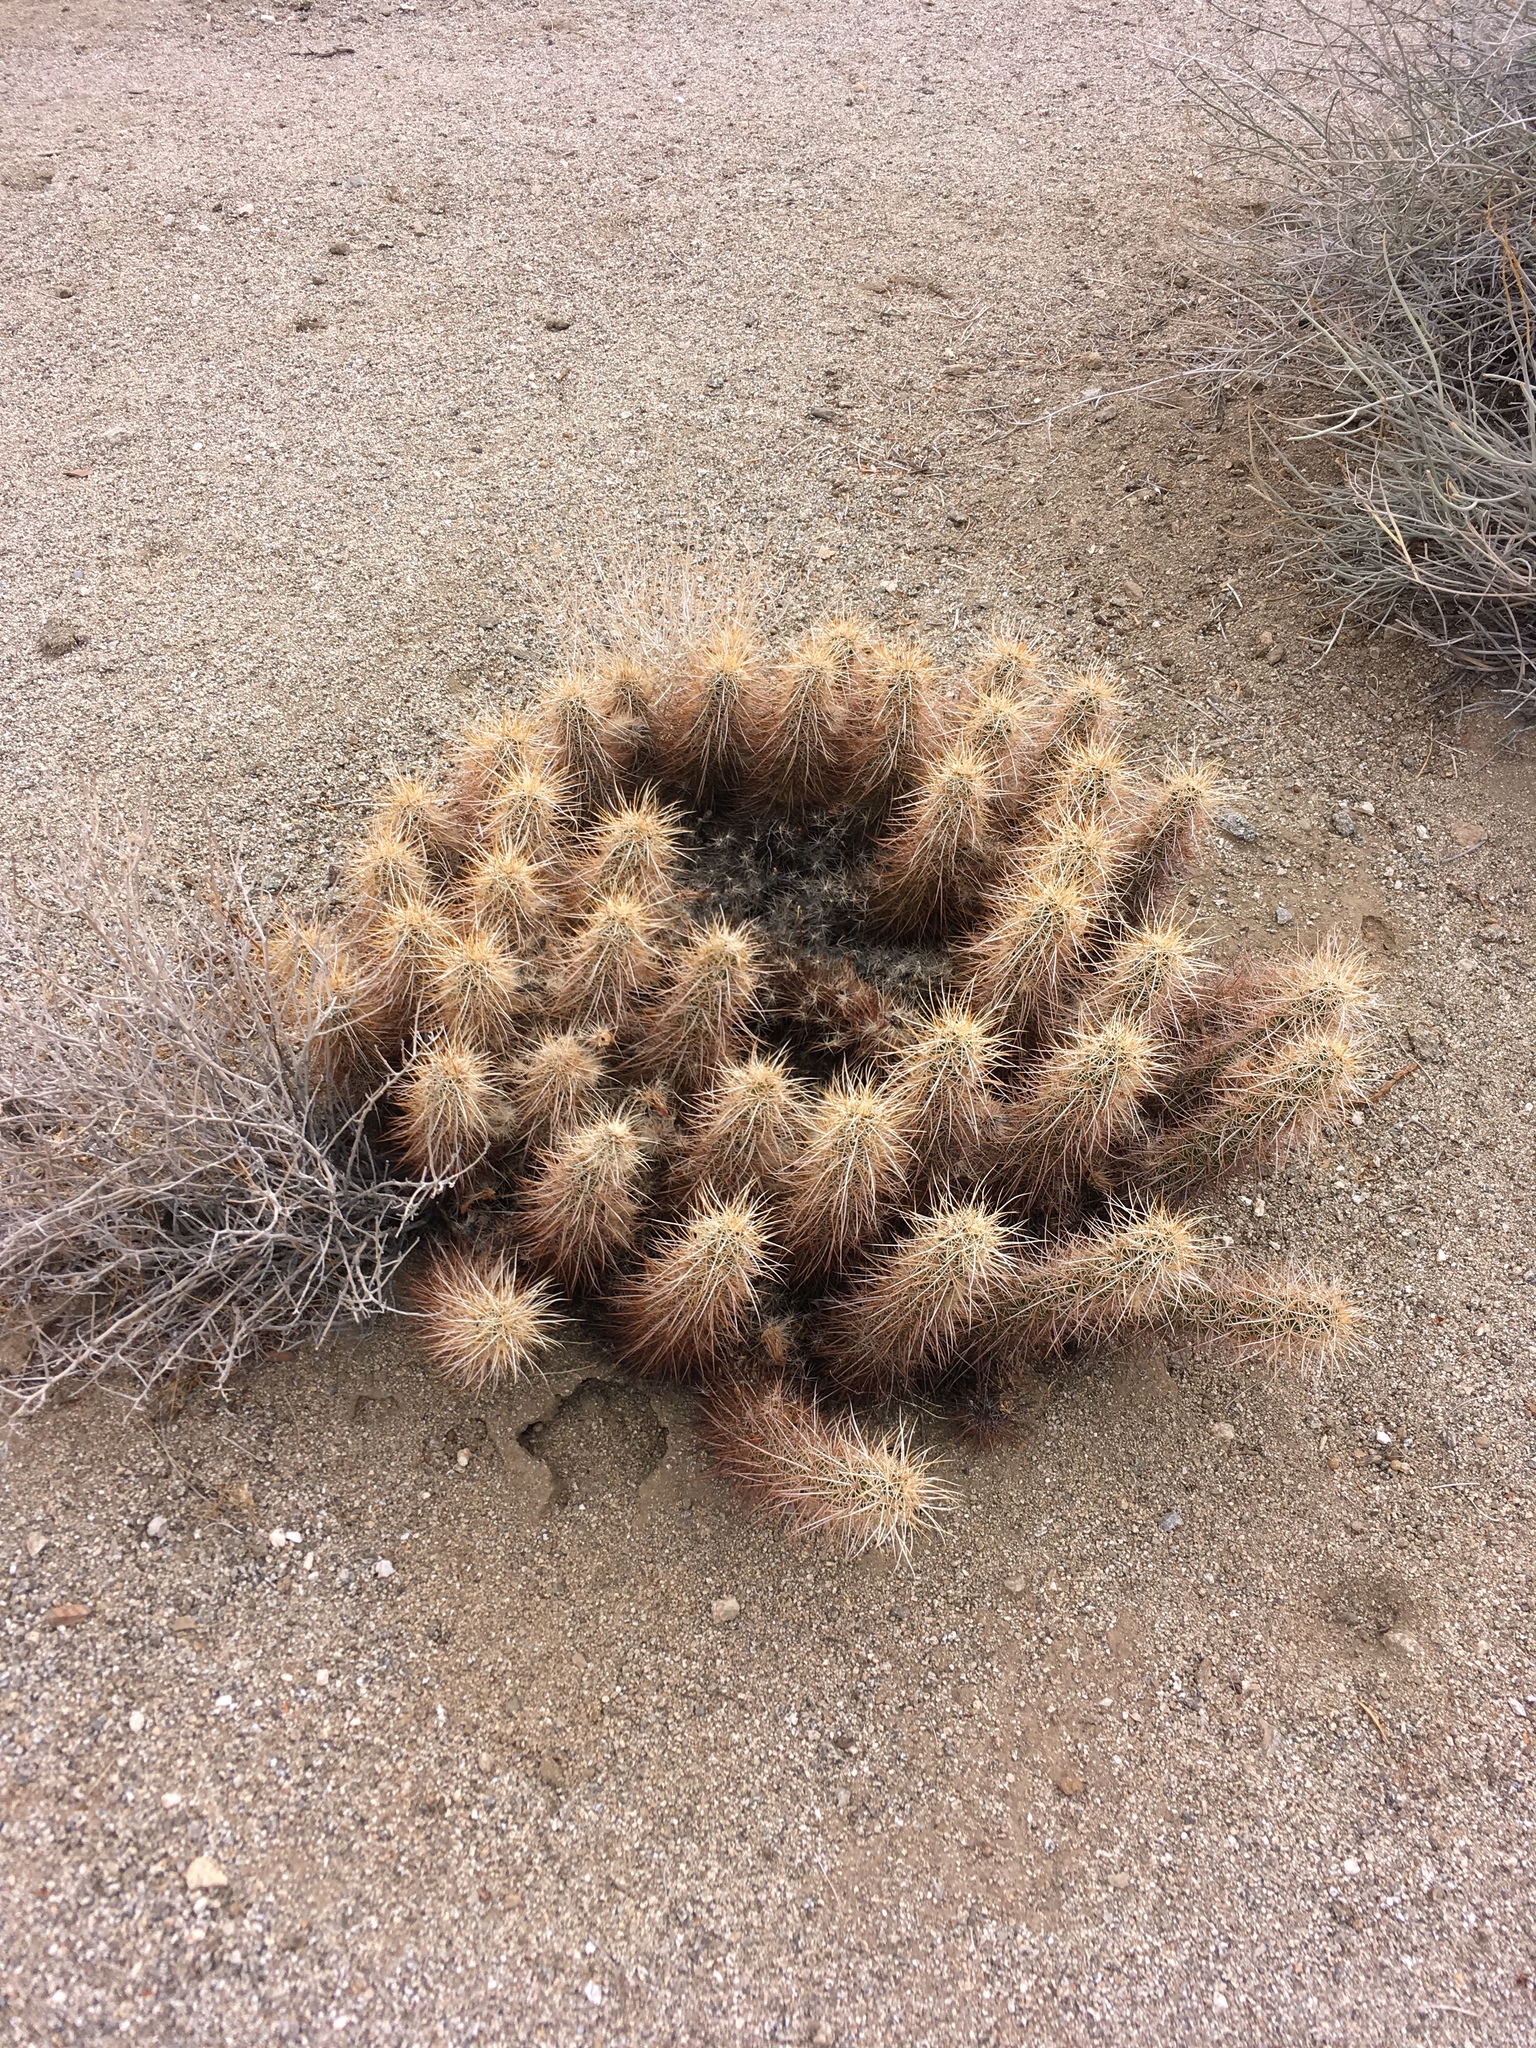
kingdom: Plantae
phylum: Tracheophyta
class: Magnoliopsida
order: Caryophyllales
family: Cactaceae
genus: Echinocereus
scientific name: Echinocereus engelmannii
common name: Engelmann's hedgehog cactus
